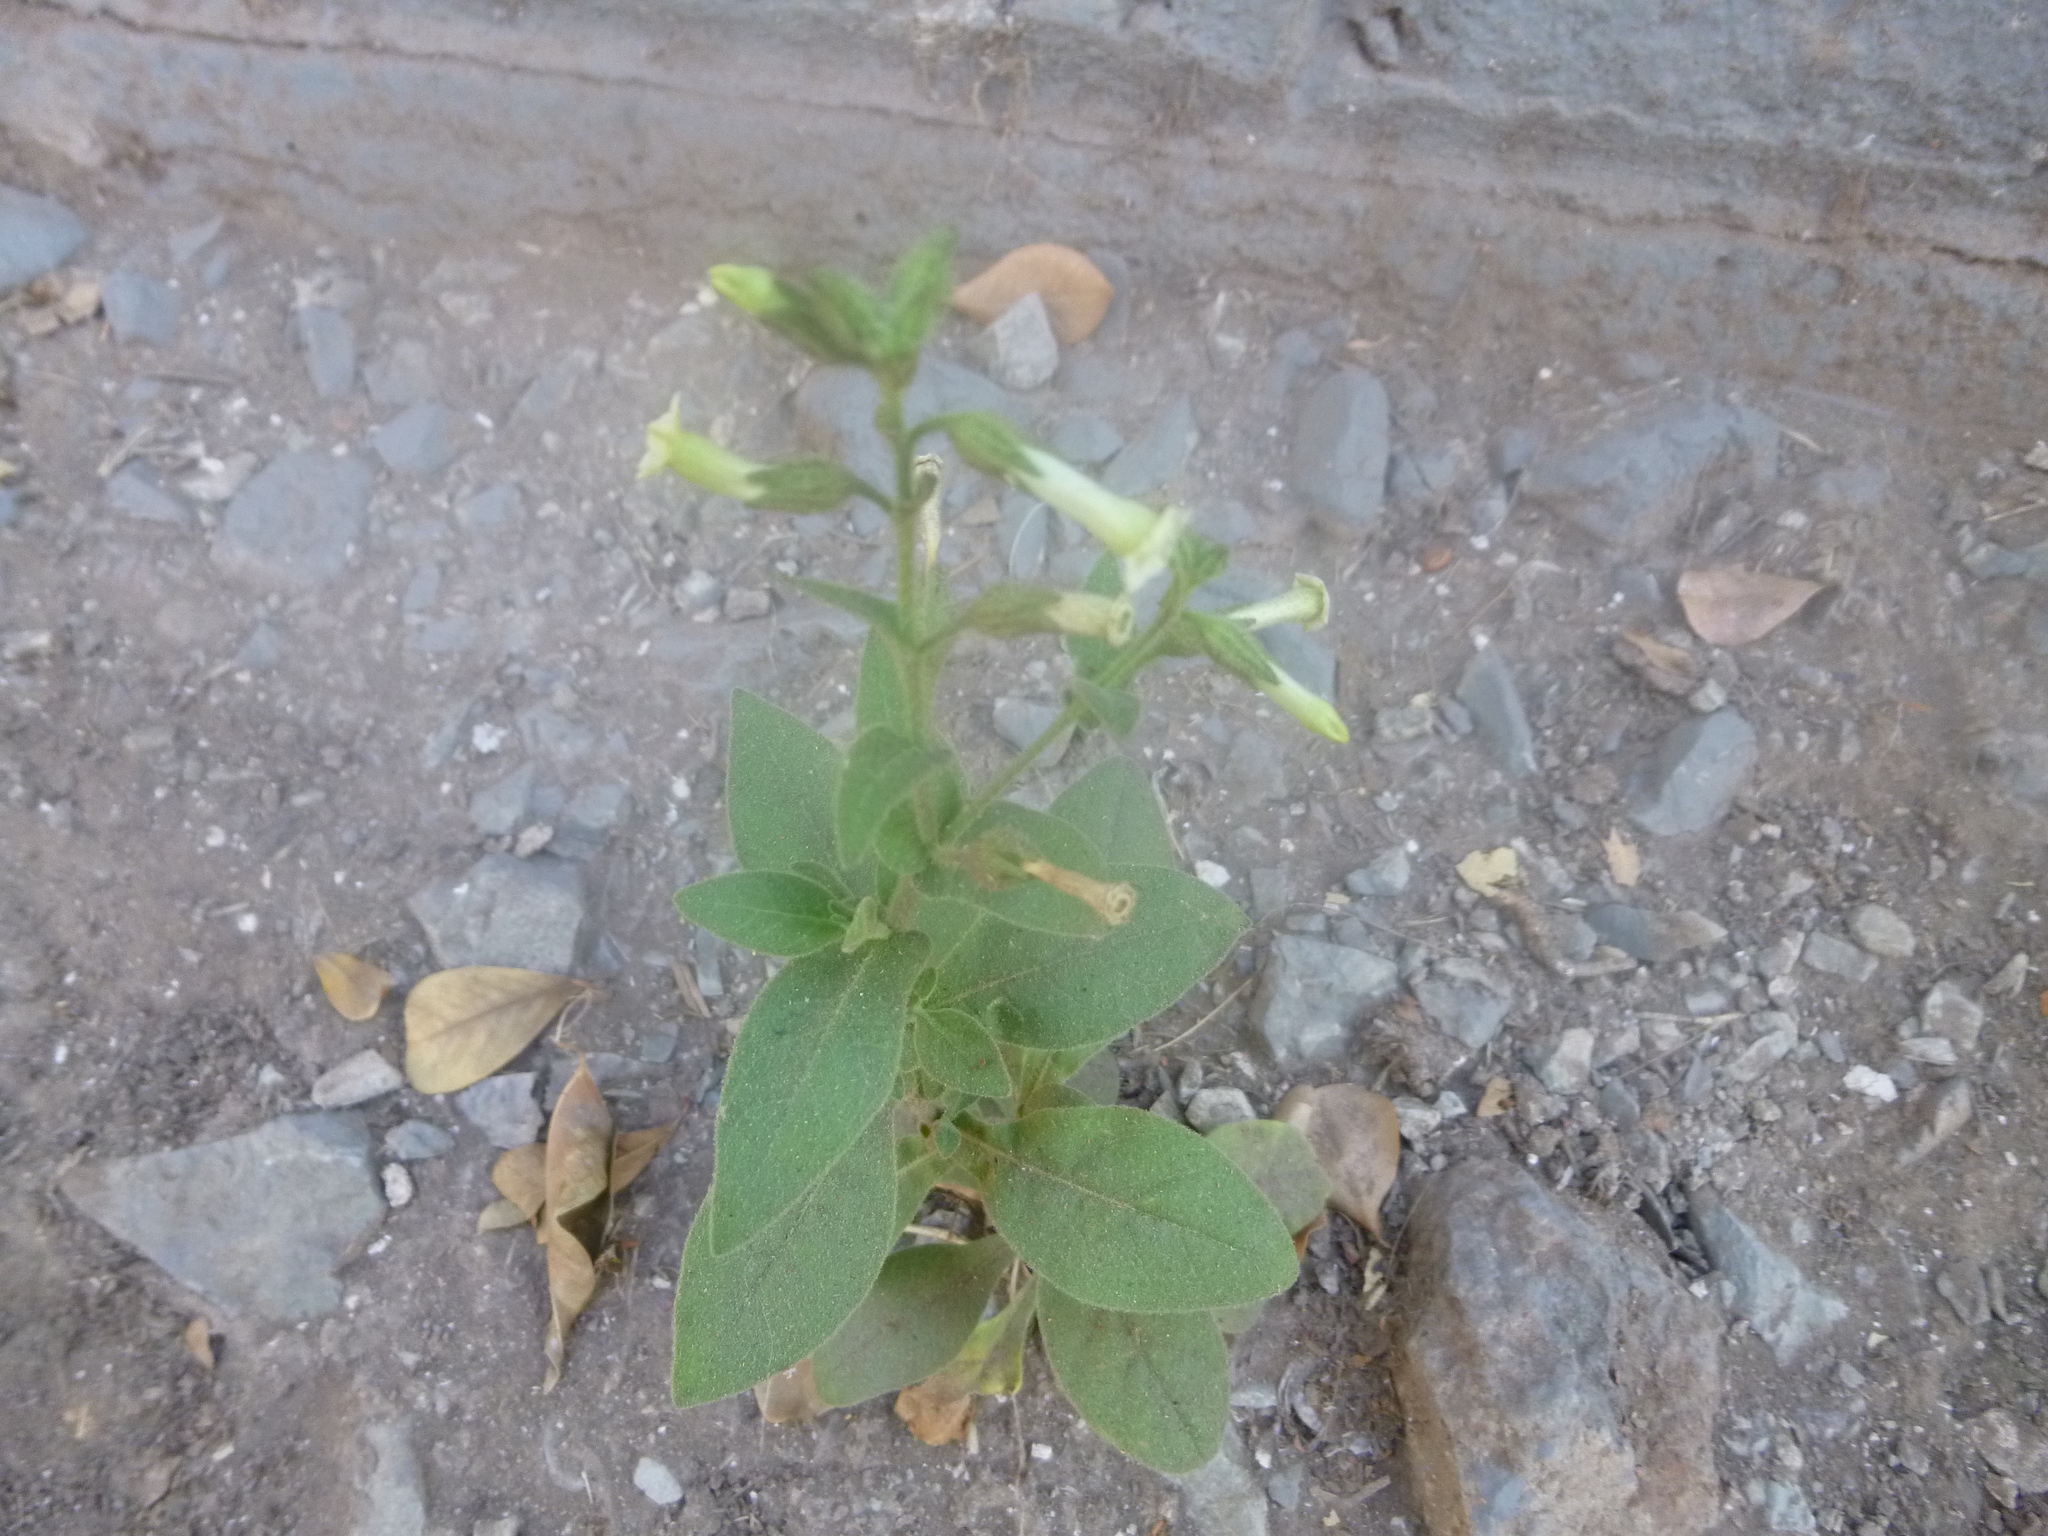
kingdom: Plantae
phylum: Tracheophyta
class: Magnoliopsida
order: Solanales
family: Solanaceae
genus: Nicotiana
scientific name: Nicotiana obtusifolia
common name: Desert tobacco
